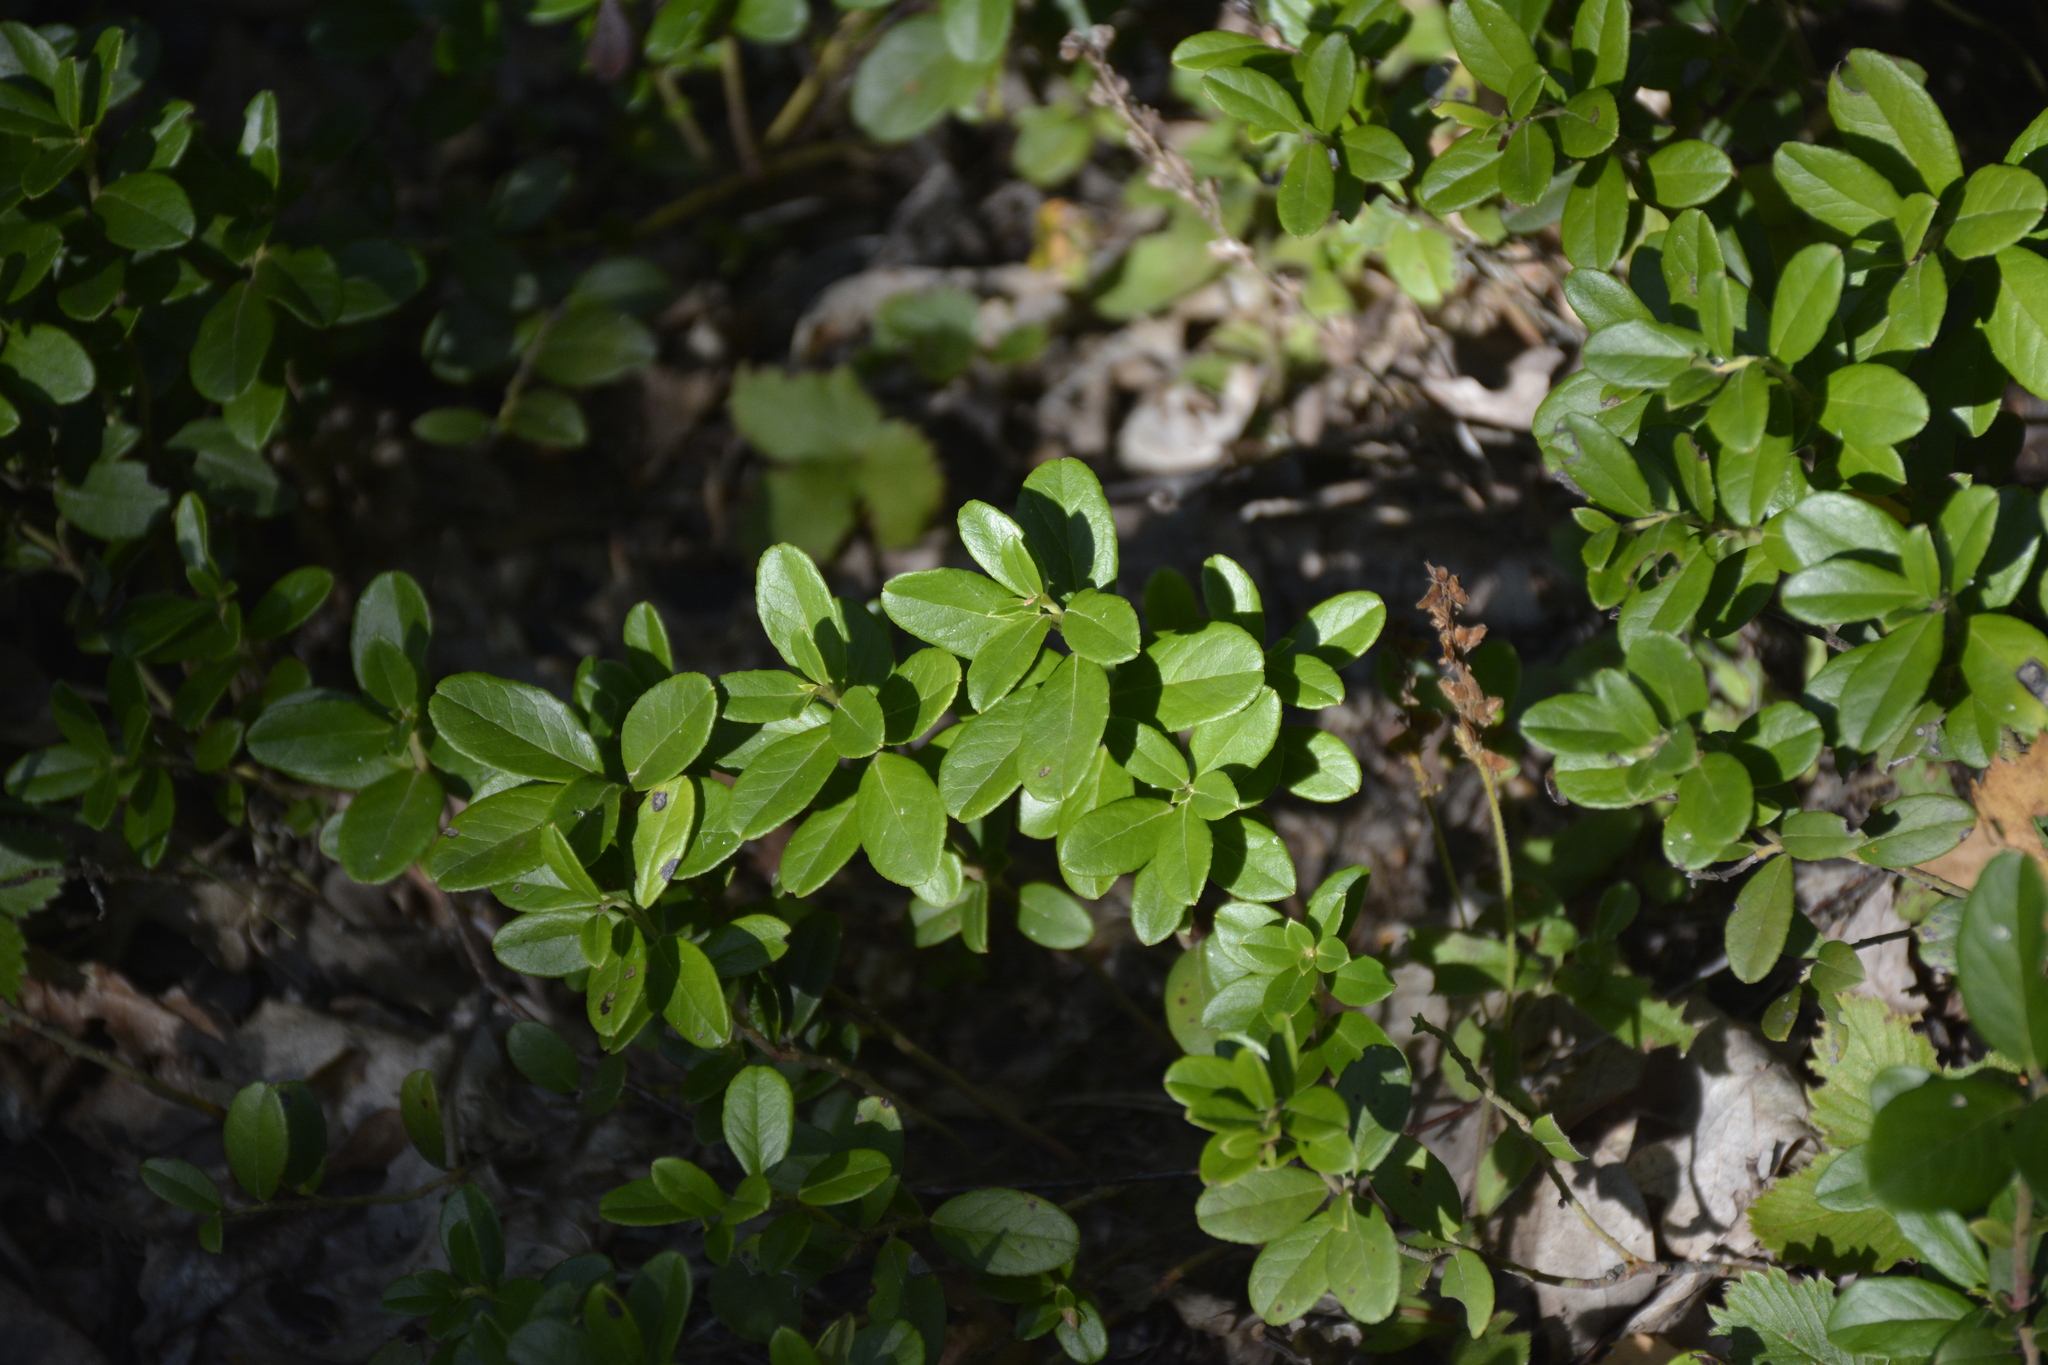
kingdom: Plantae
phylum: Tracheophyta
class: Magnoliopsida
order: Ericales
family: Ericaceae
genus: Vaccinium
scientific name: Vaccinium vitis-idaea
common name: Cowberry
